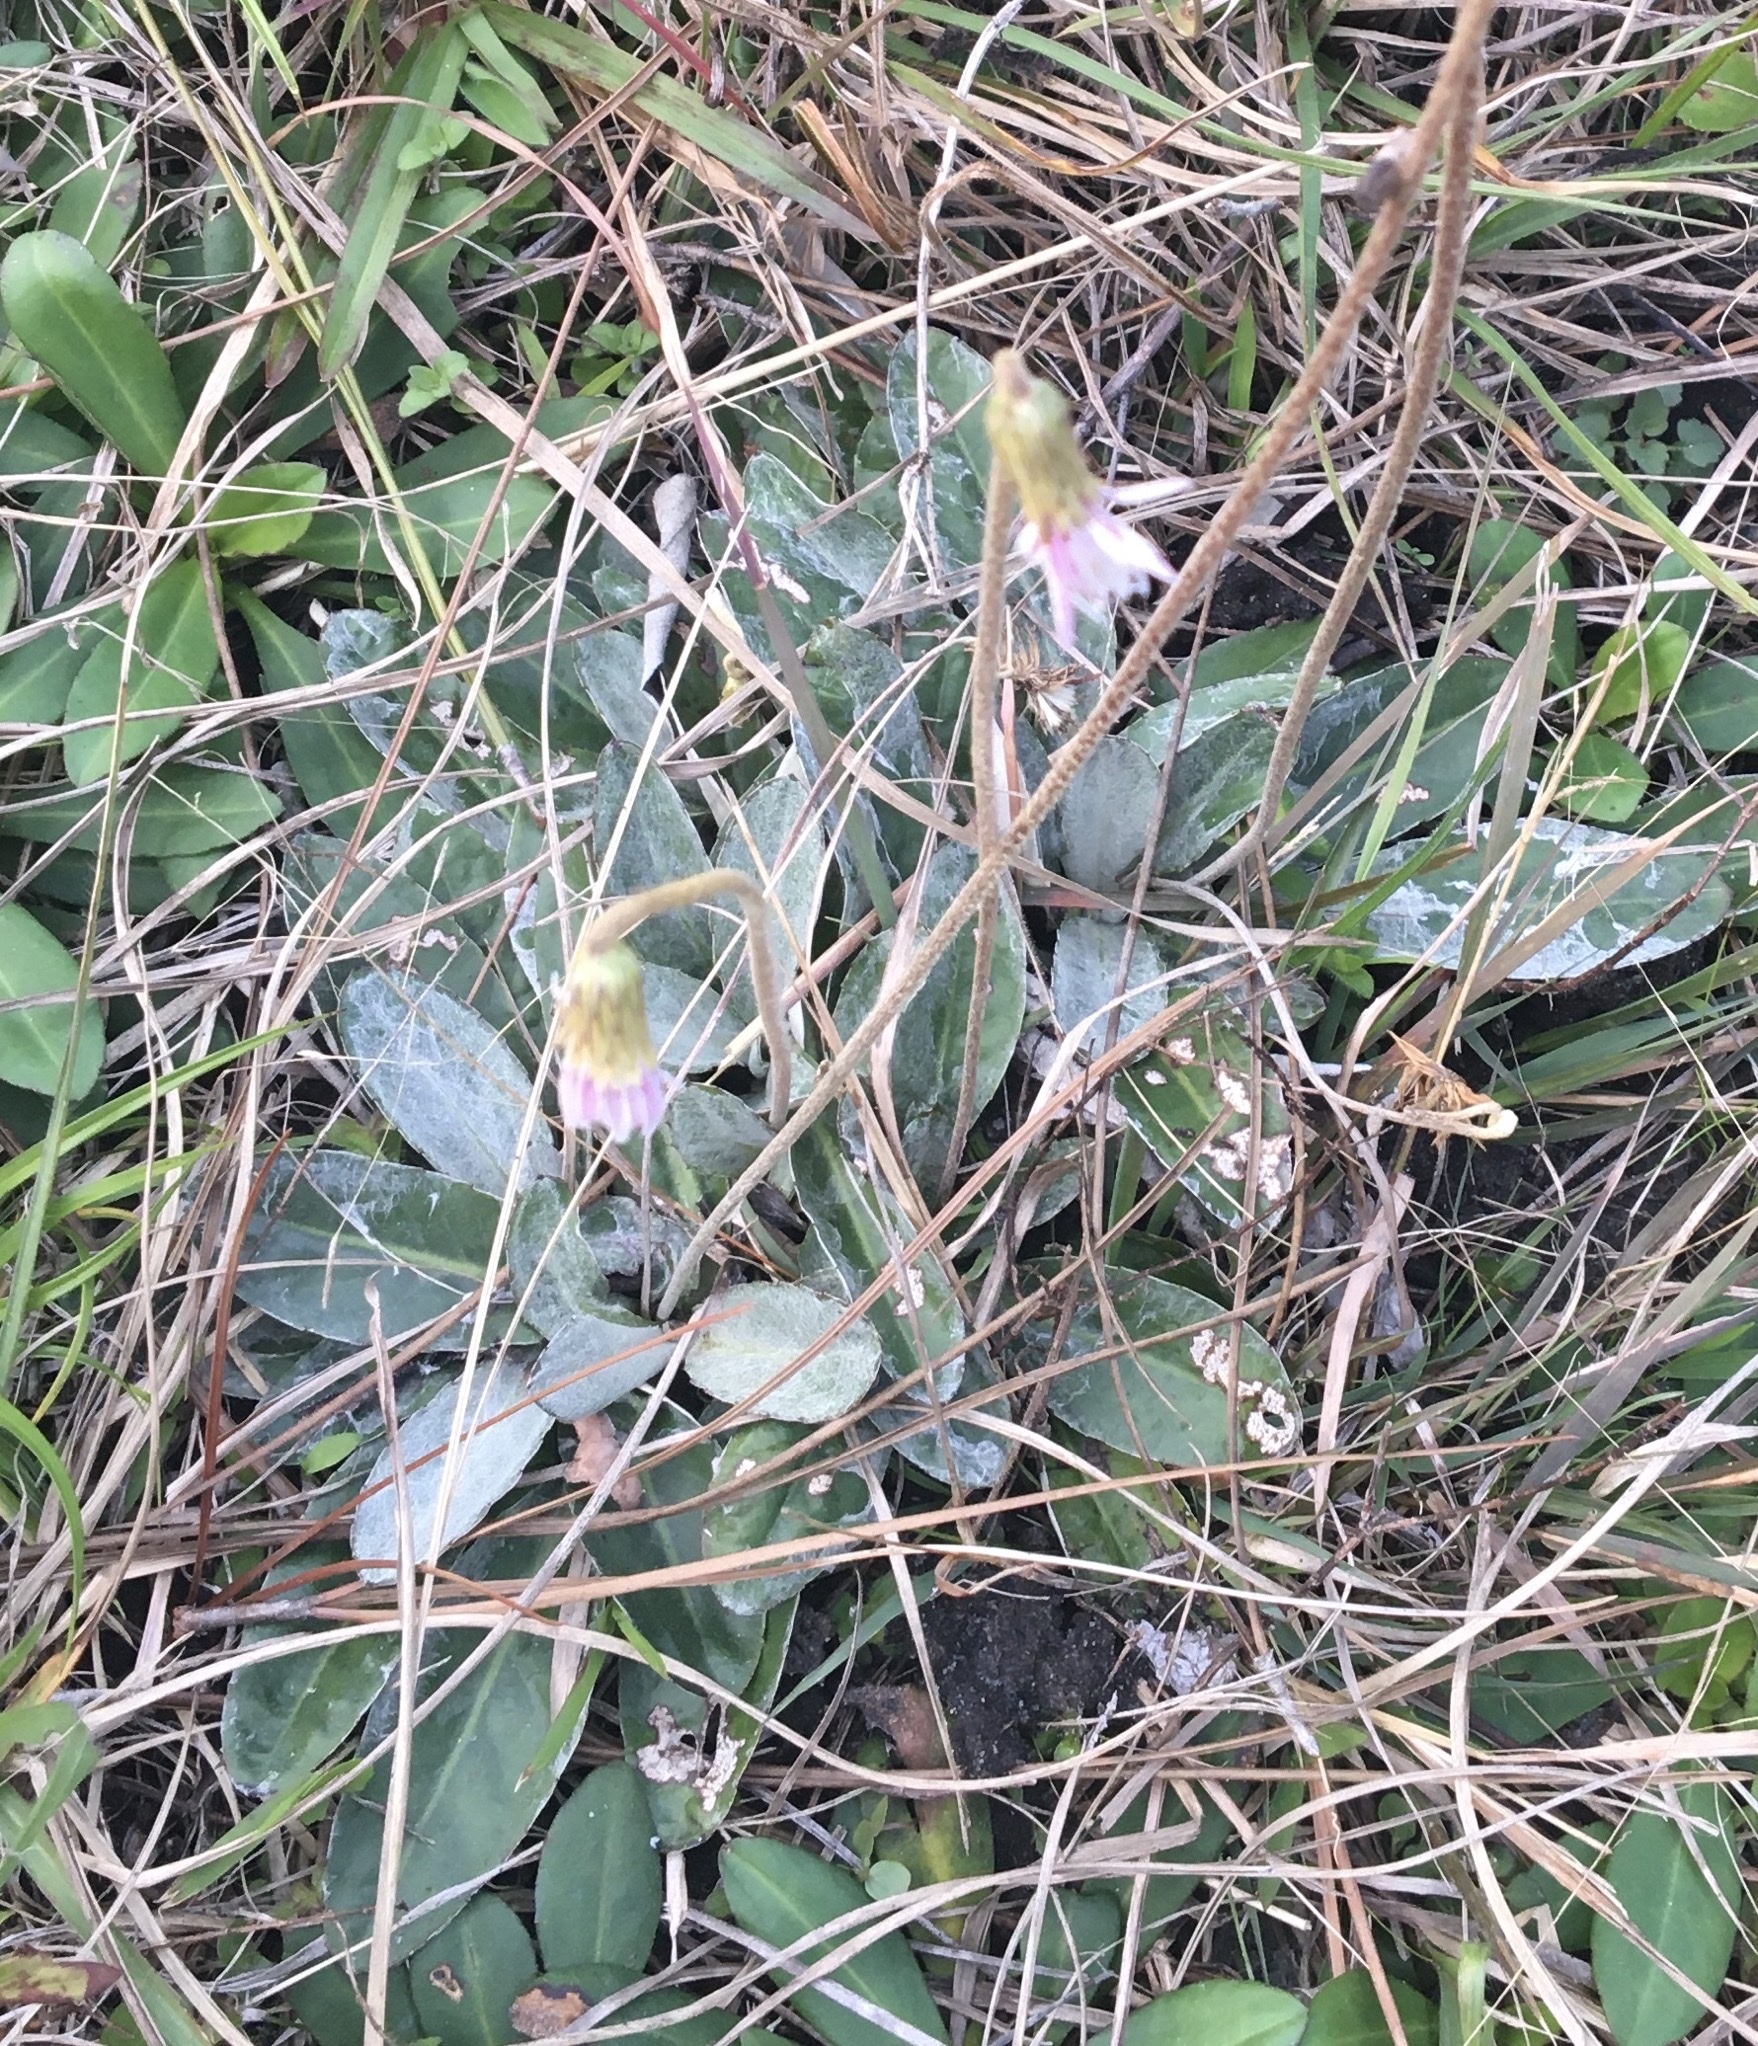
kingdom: Plantae
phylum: Tracheophyta
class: Magnoliopsida
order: Asterales
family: Asteraceae
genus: Chaptalia
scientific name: Chaptalia tomentosa
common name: Woolly sunbonnet
